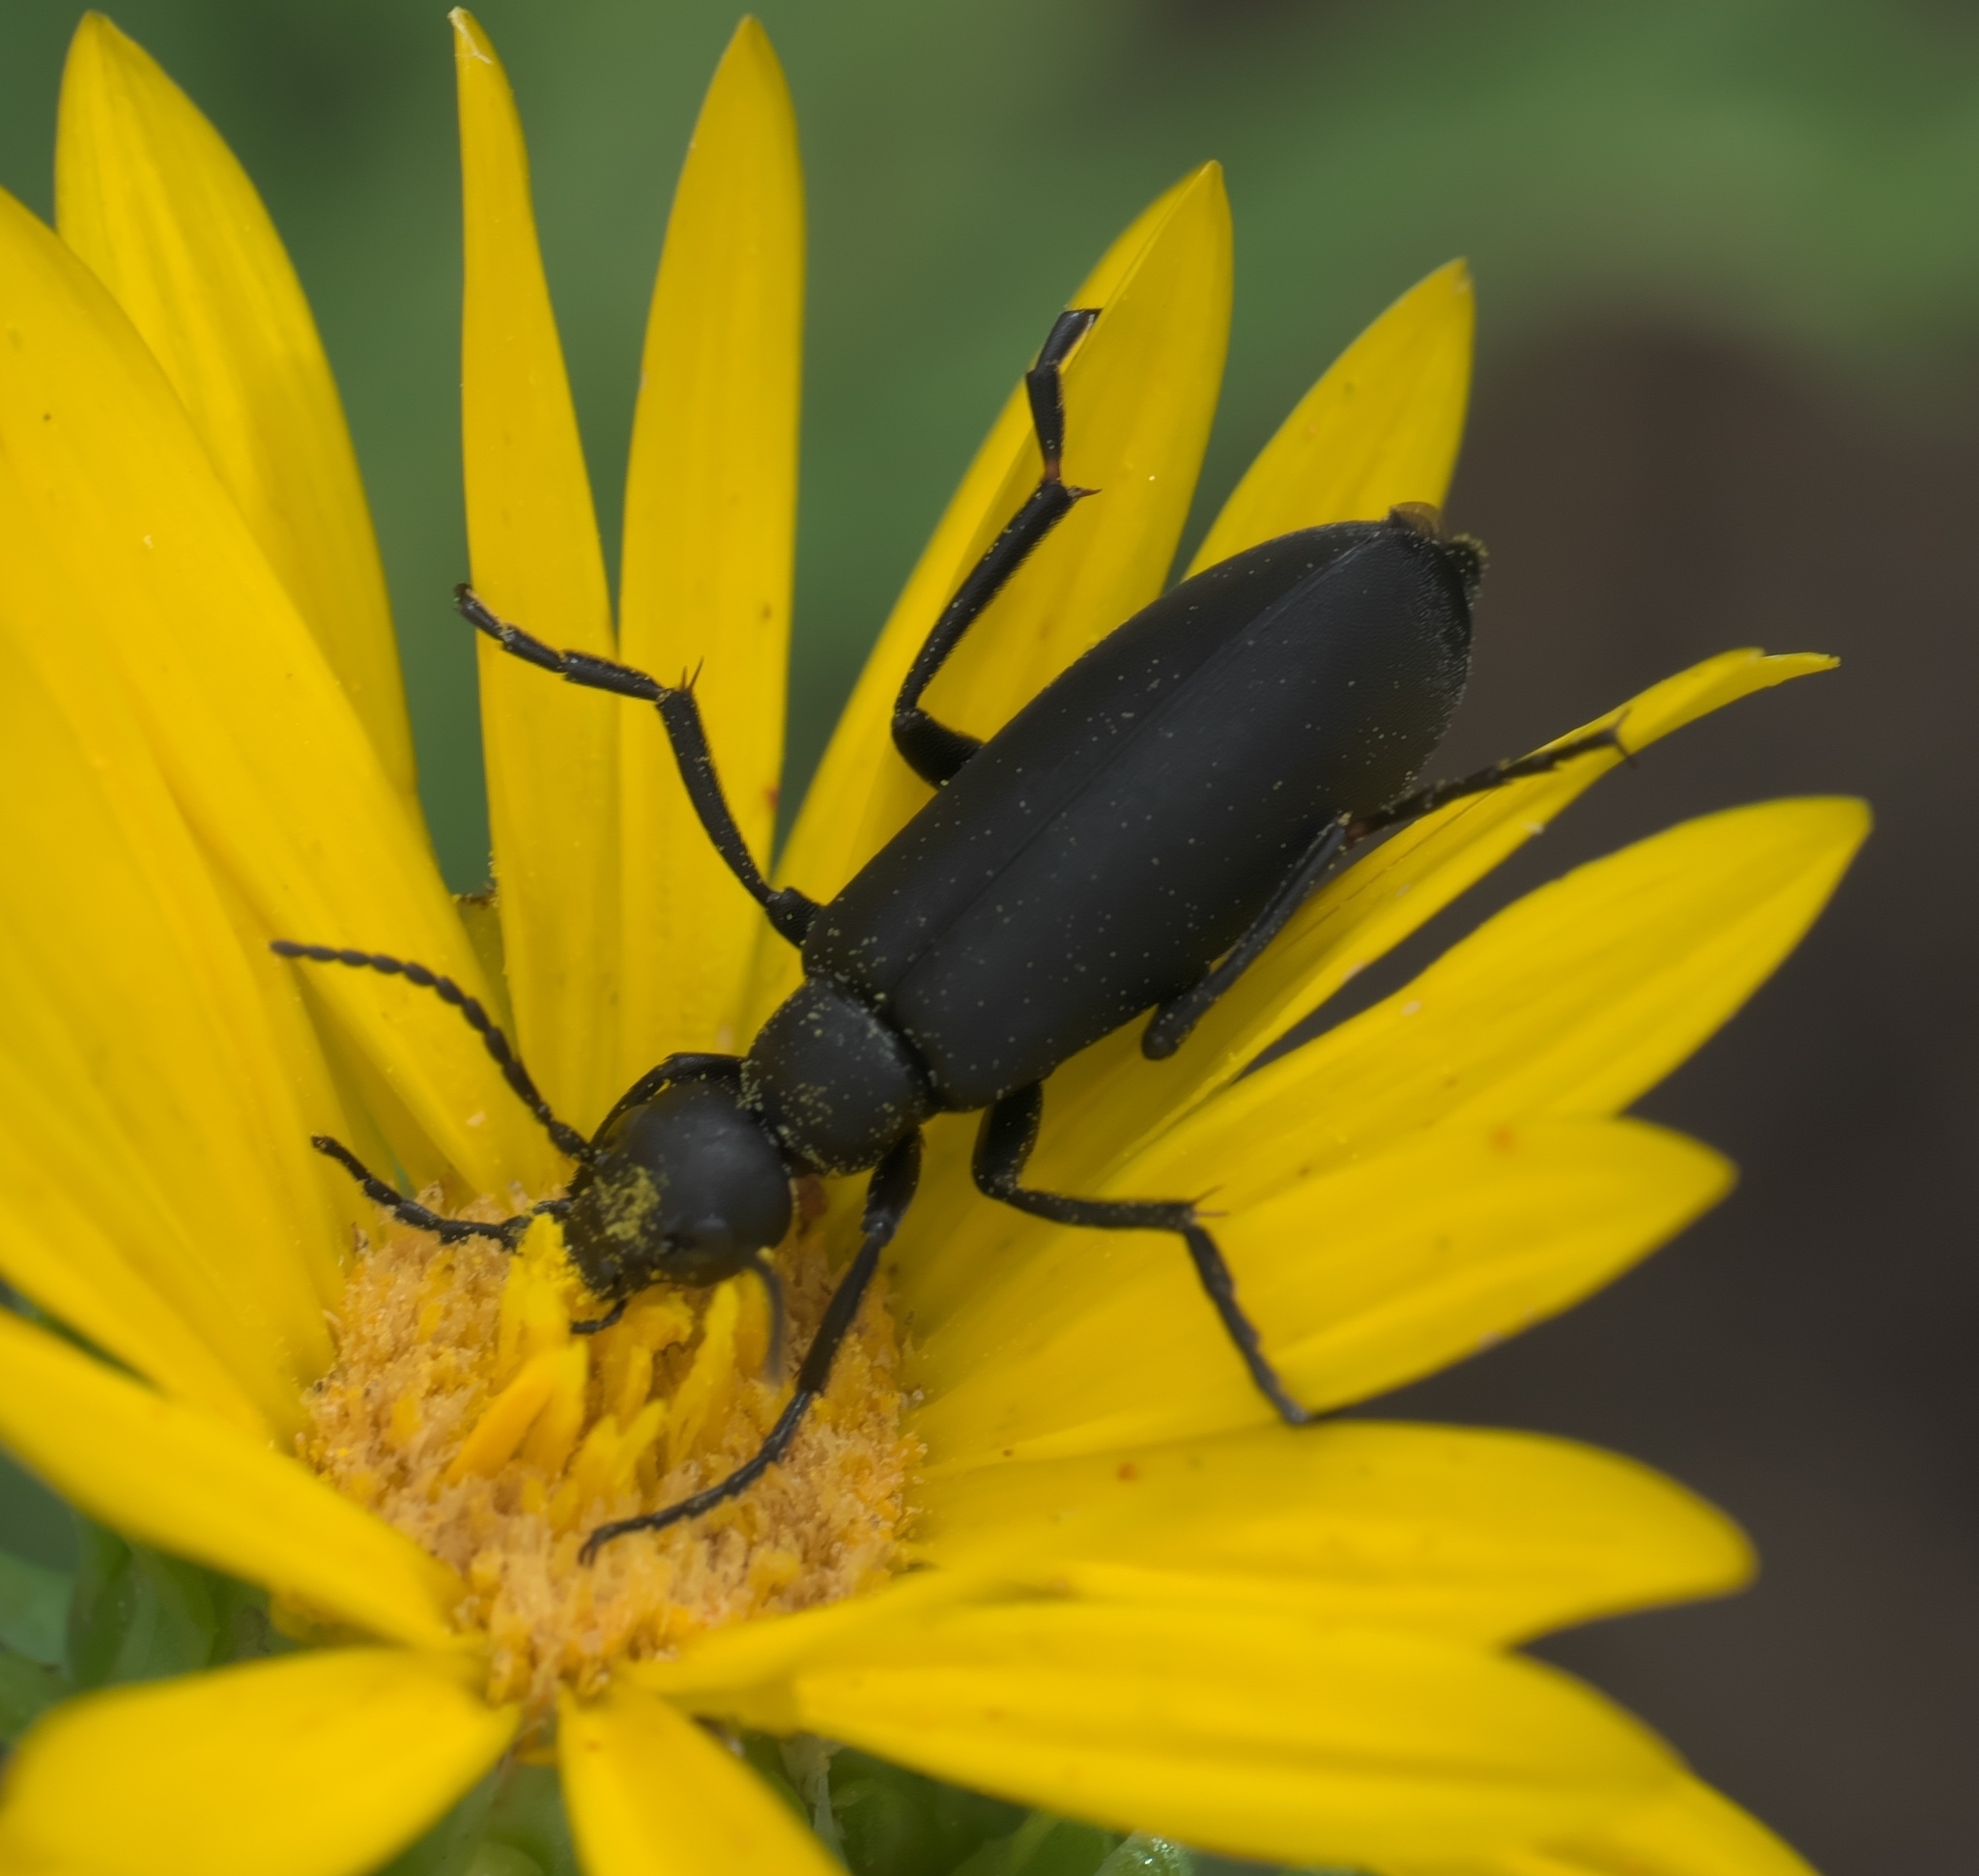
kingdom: Animalia
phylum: Arthropoda
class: Insecta
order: Coleoptera
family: Meloidae
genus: Epicauta
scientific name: Epicauta pensylvanica
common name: Black blister beetle
